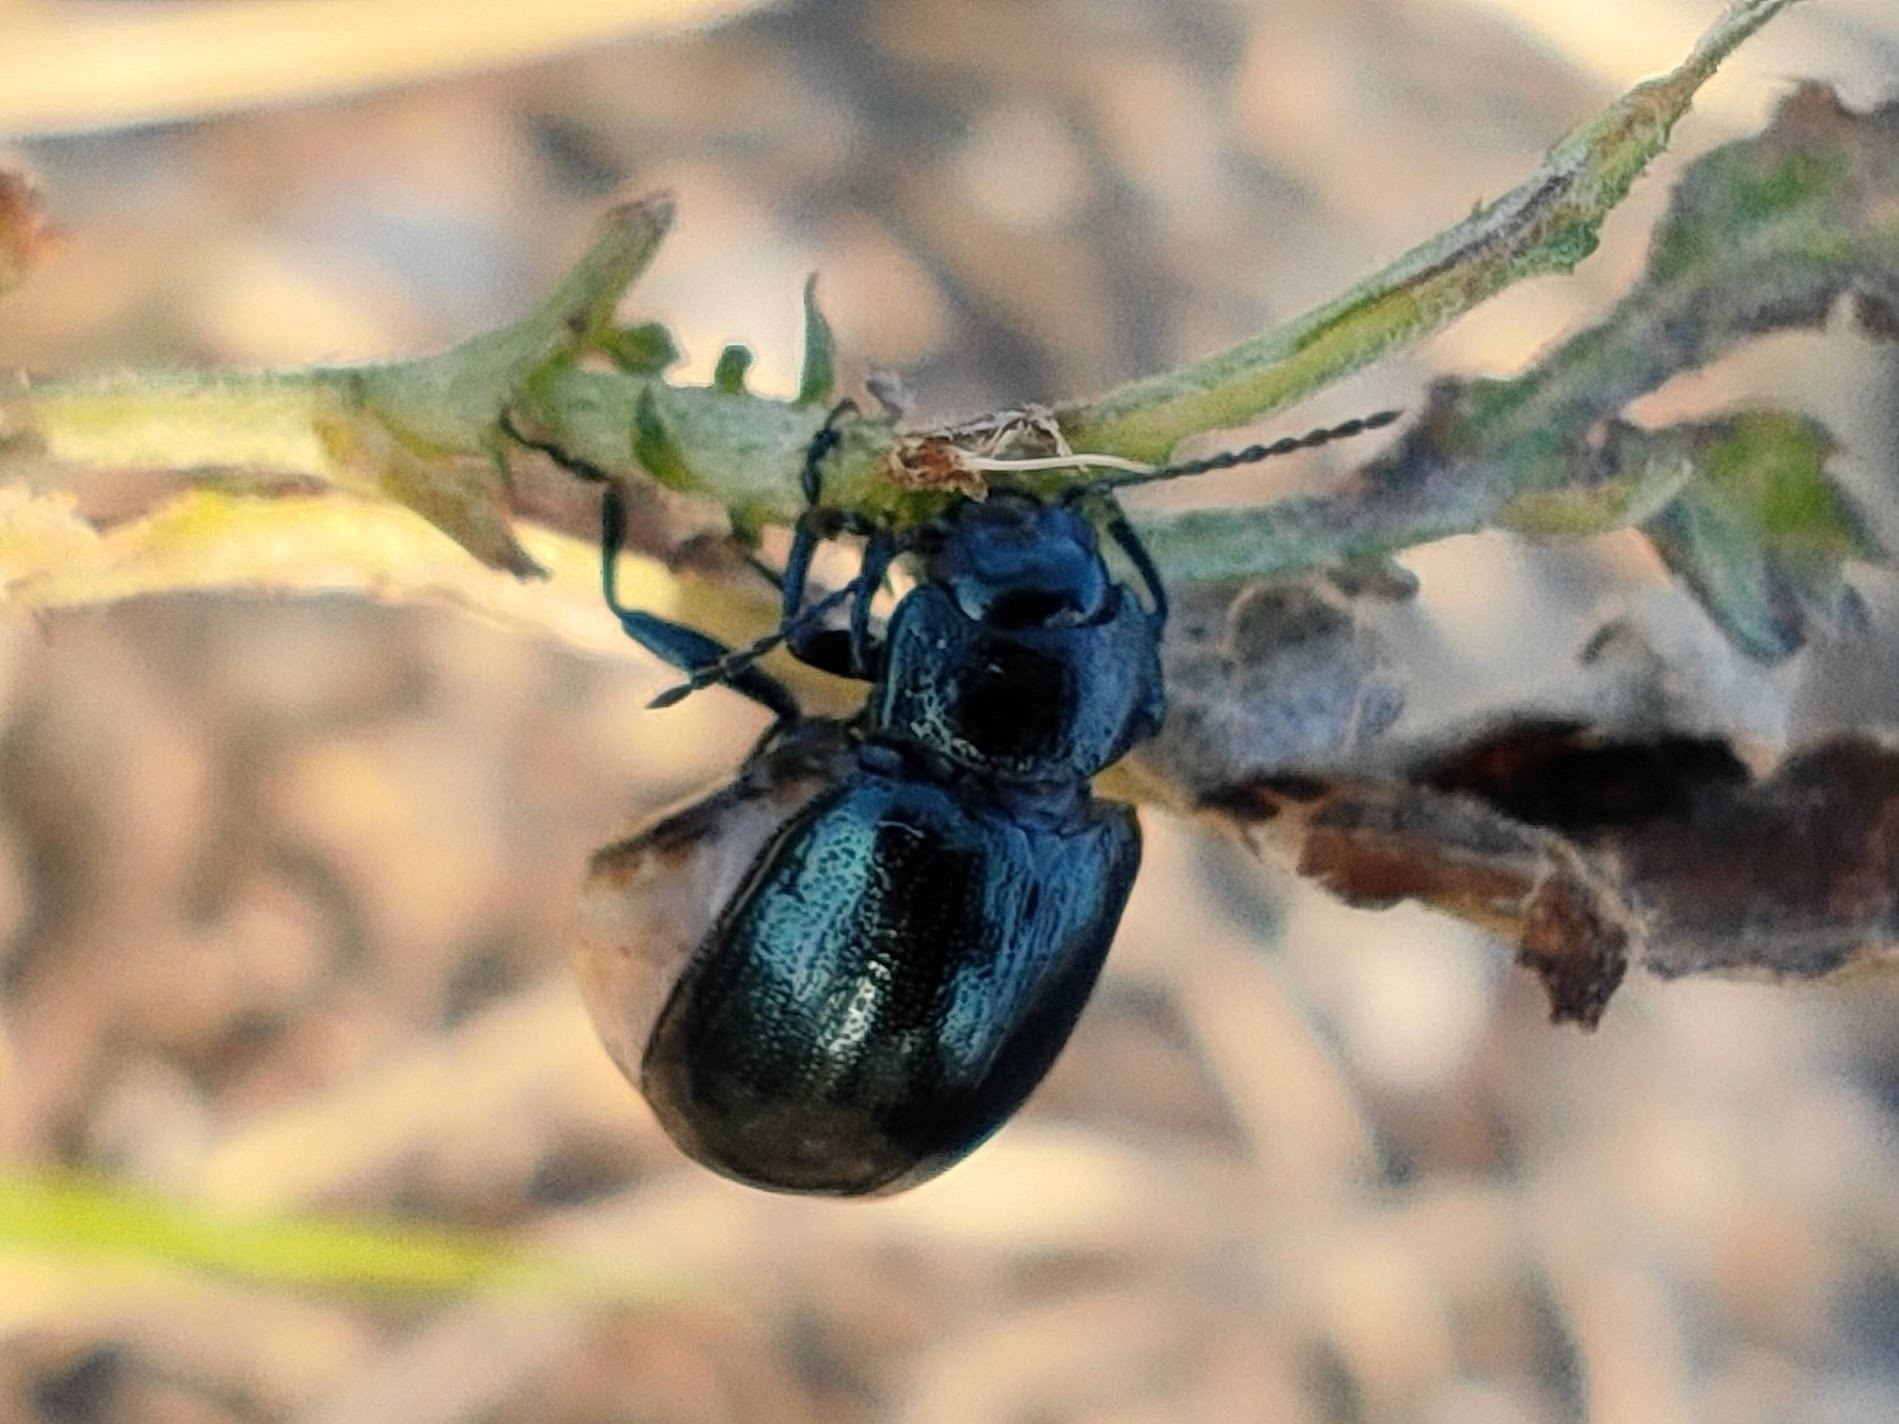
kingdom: Animalia
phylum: Arthropoda
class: Insecta
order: Coleoptera
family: Chrysomelidae
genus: Chrysolina
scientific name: Chrysolina aurichalcea
